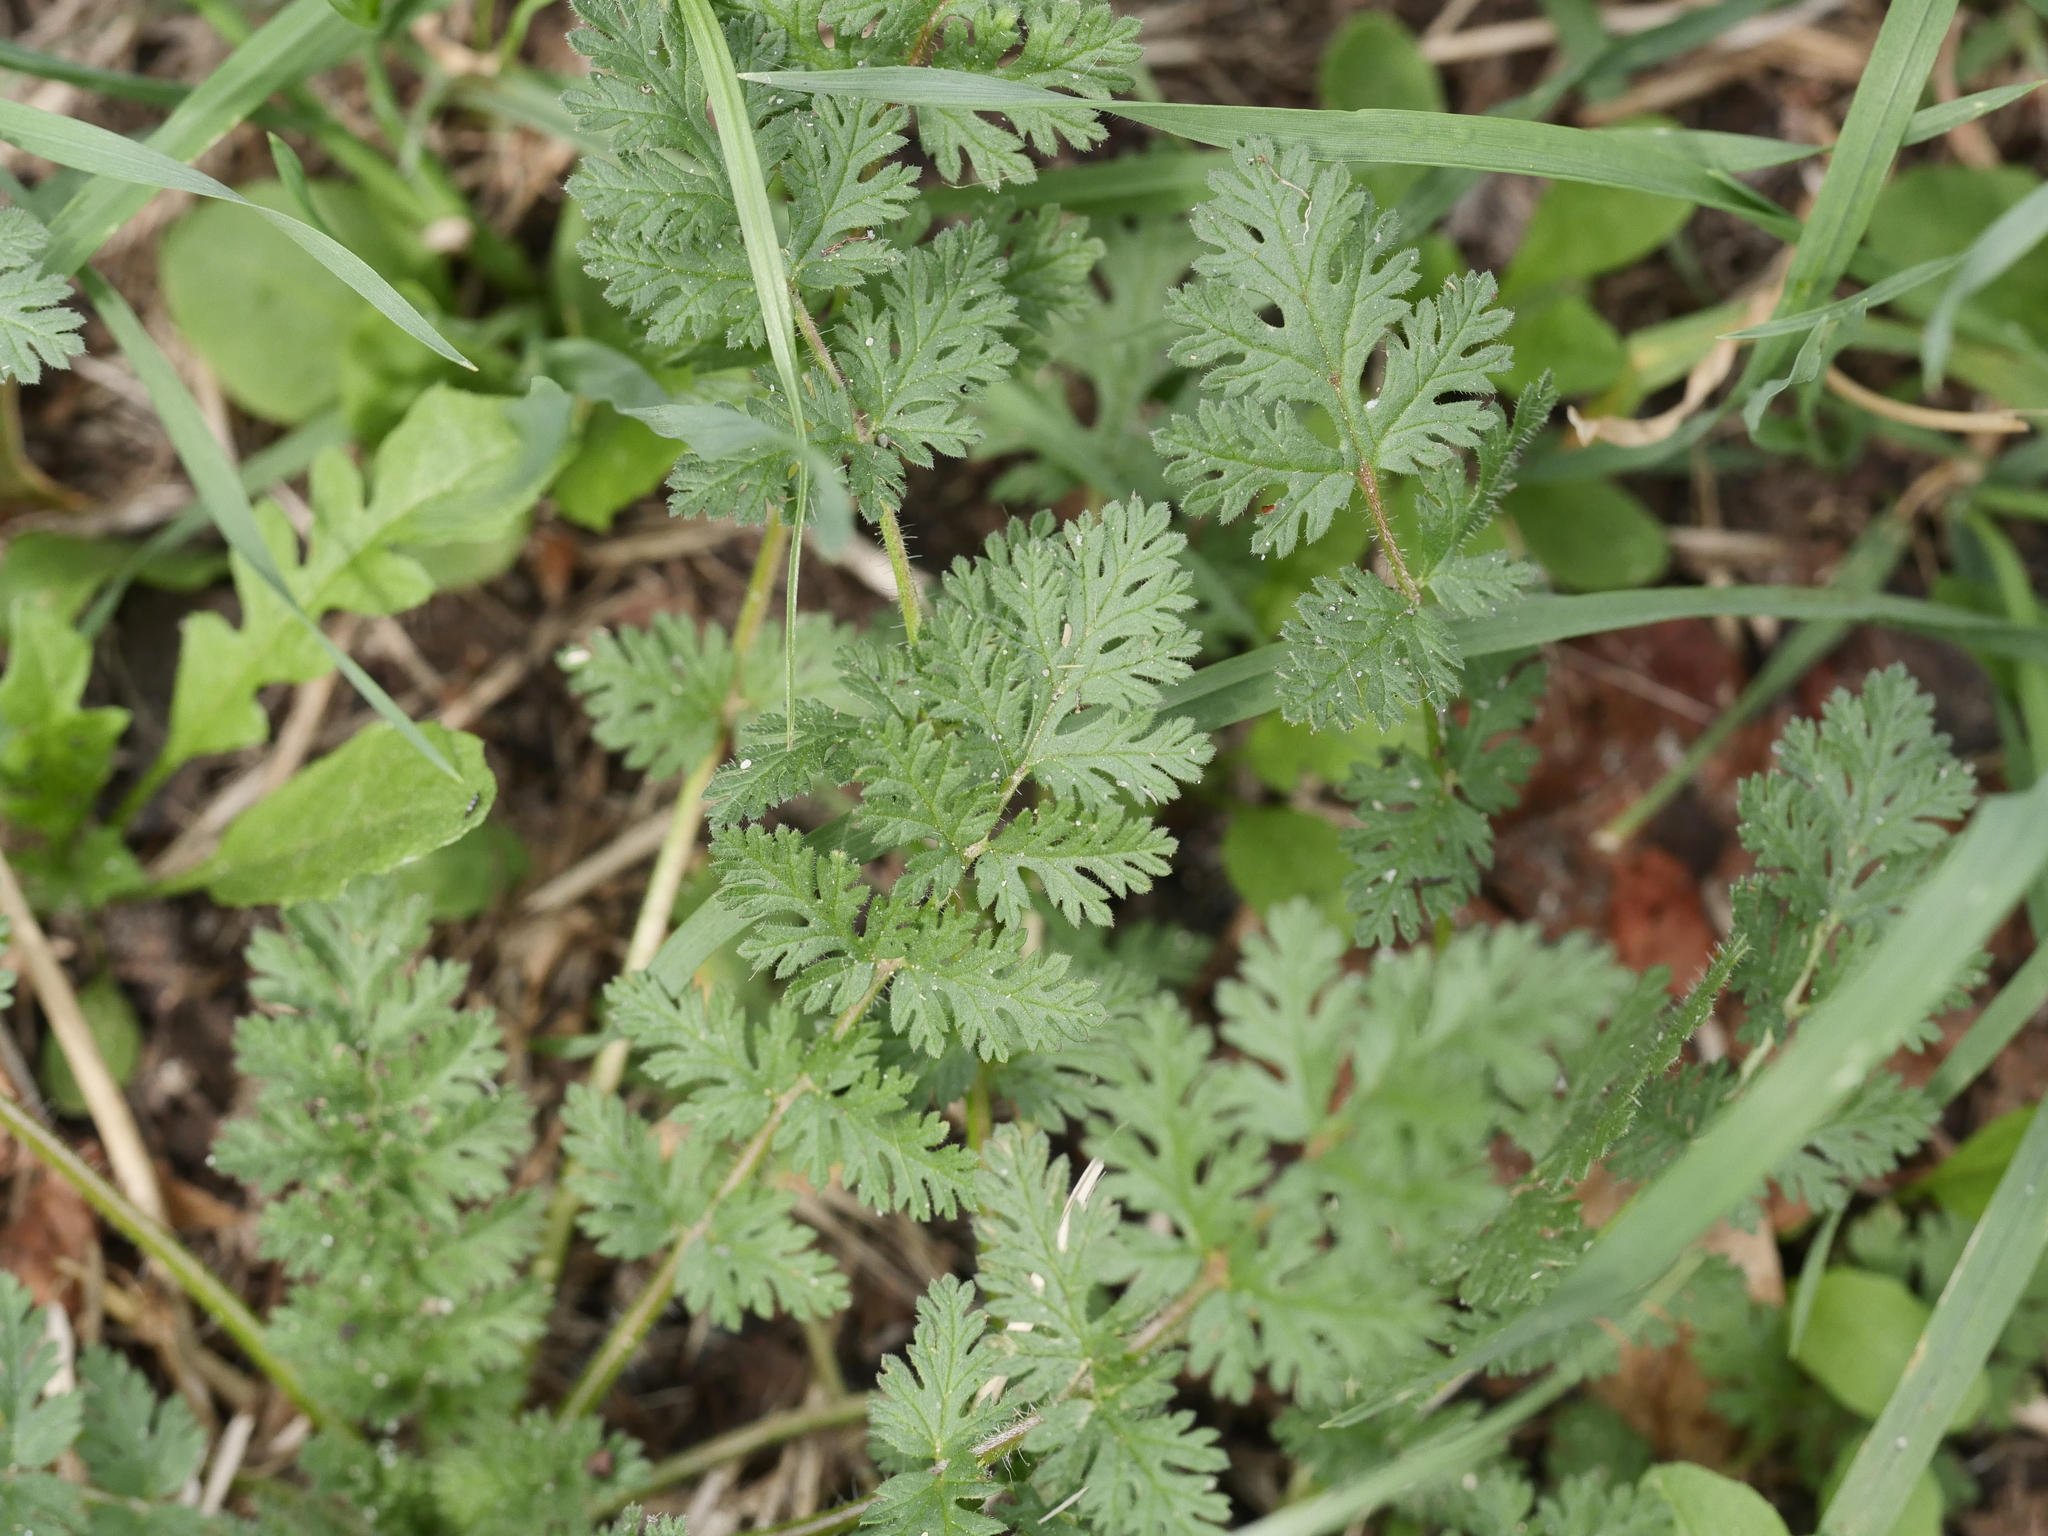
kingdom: Plantae
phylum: Tracheophyta
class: Magnoliopsida
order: Geraniales
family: Geraniaceae
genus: Erodium
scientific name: Erodium cicutarium
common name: Common stork's-bill
